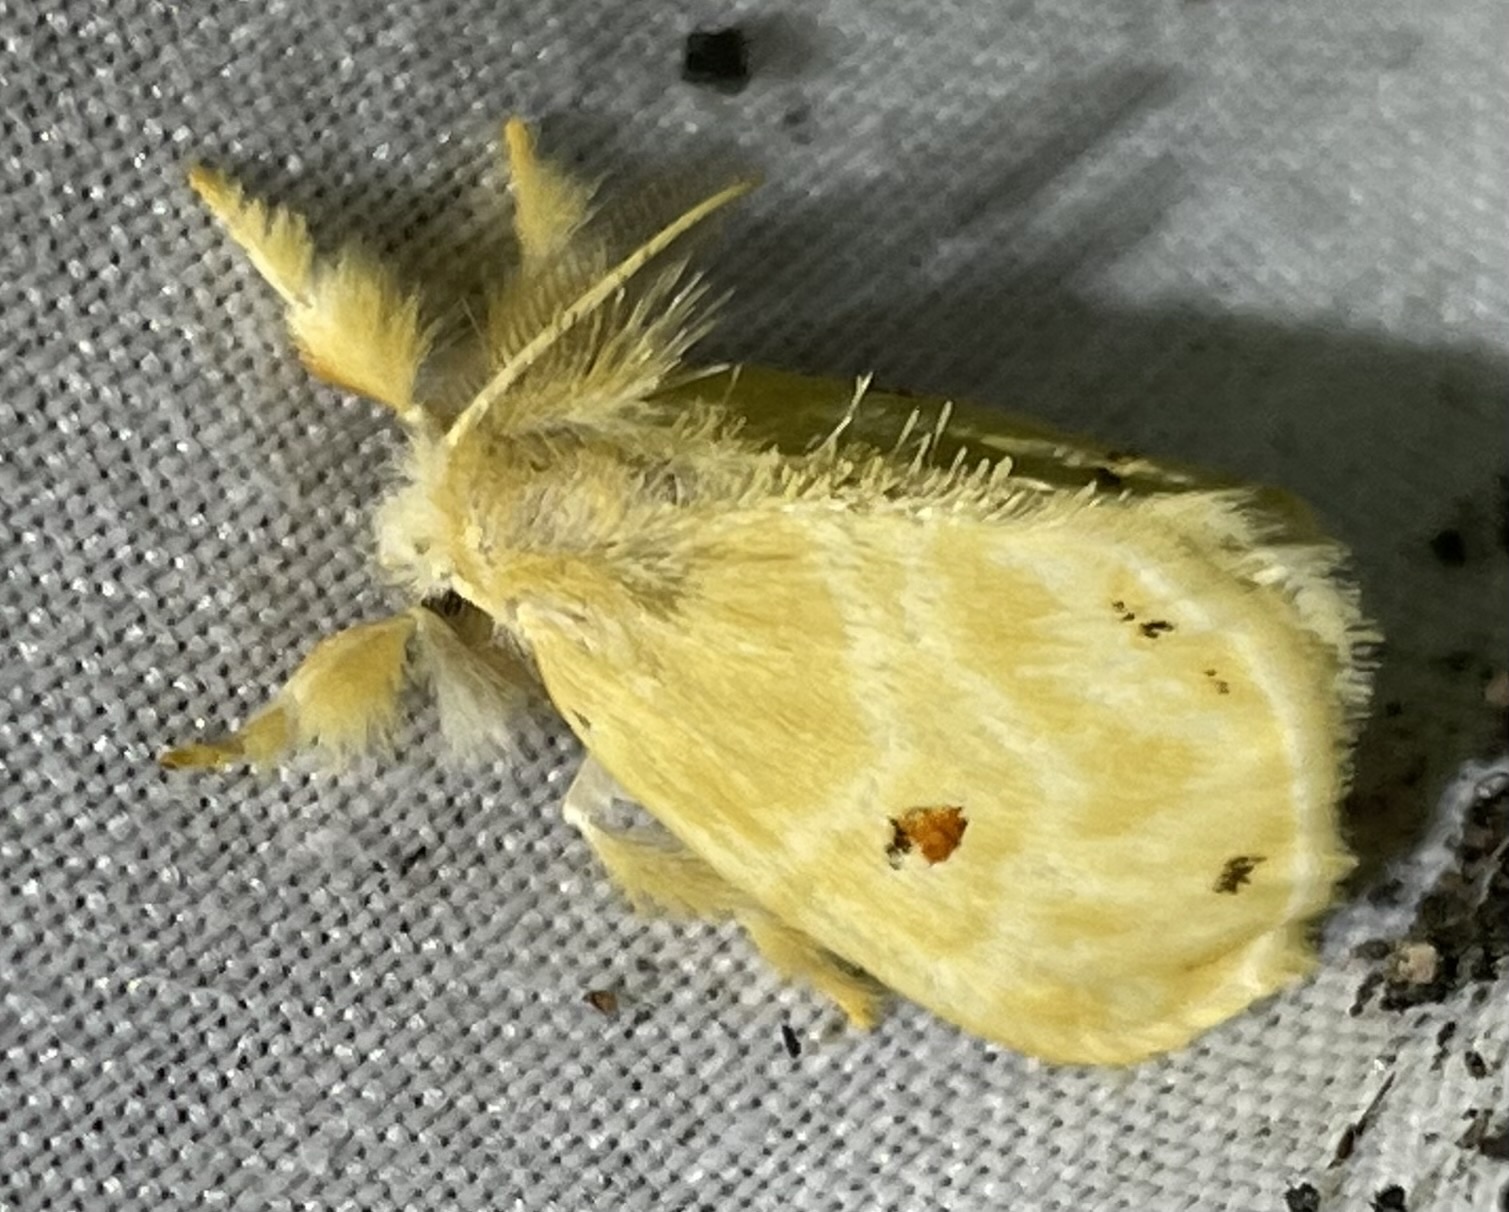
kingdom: Animalia
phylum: Arthropoda
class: Insecta
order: Lepidoptera
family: Erebidae
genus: Euproctis
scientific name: Euproctis bicolor
